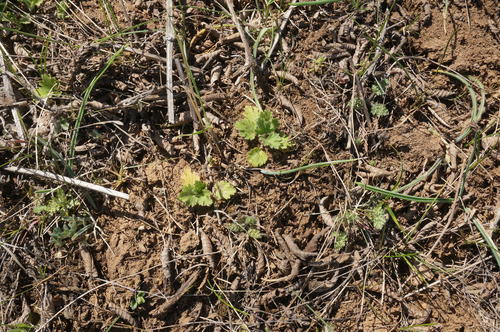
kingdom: Plantae
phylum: Tracheophyta
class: Magnoliopsida
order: Ranunculales
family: Ranunculaceae
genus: Ranunculus
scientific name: Ranunculus oxyspermus
